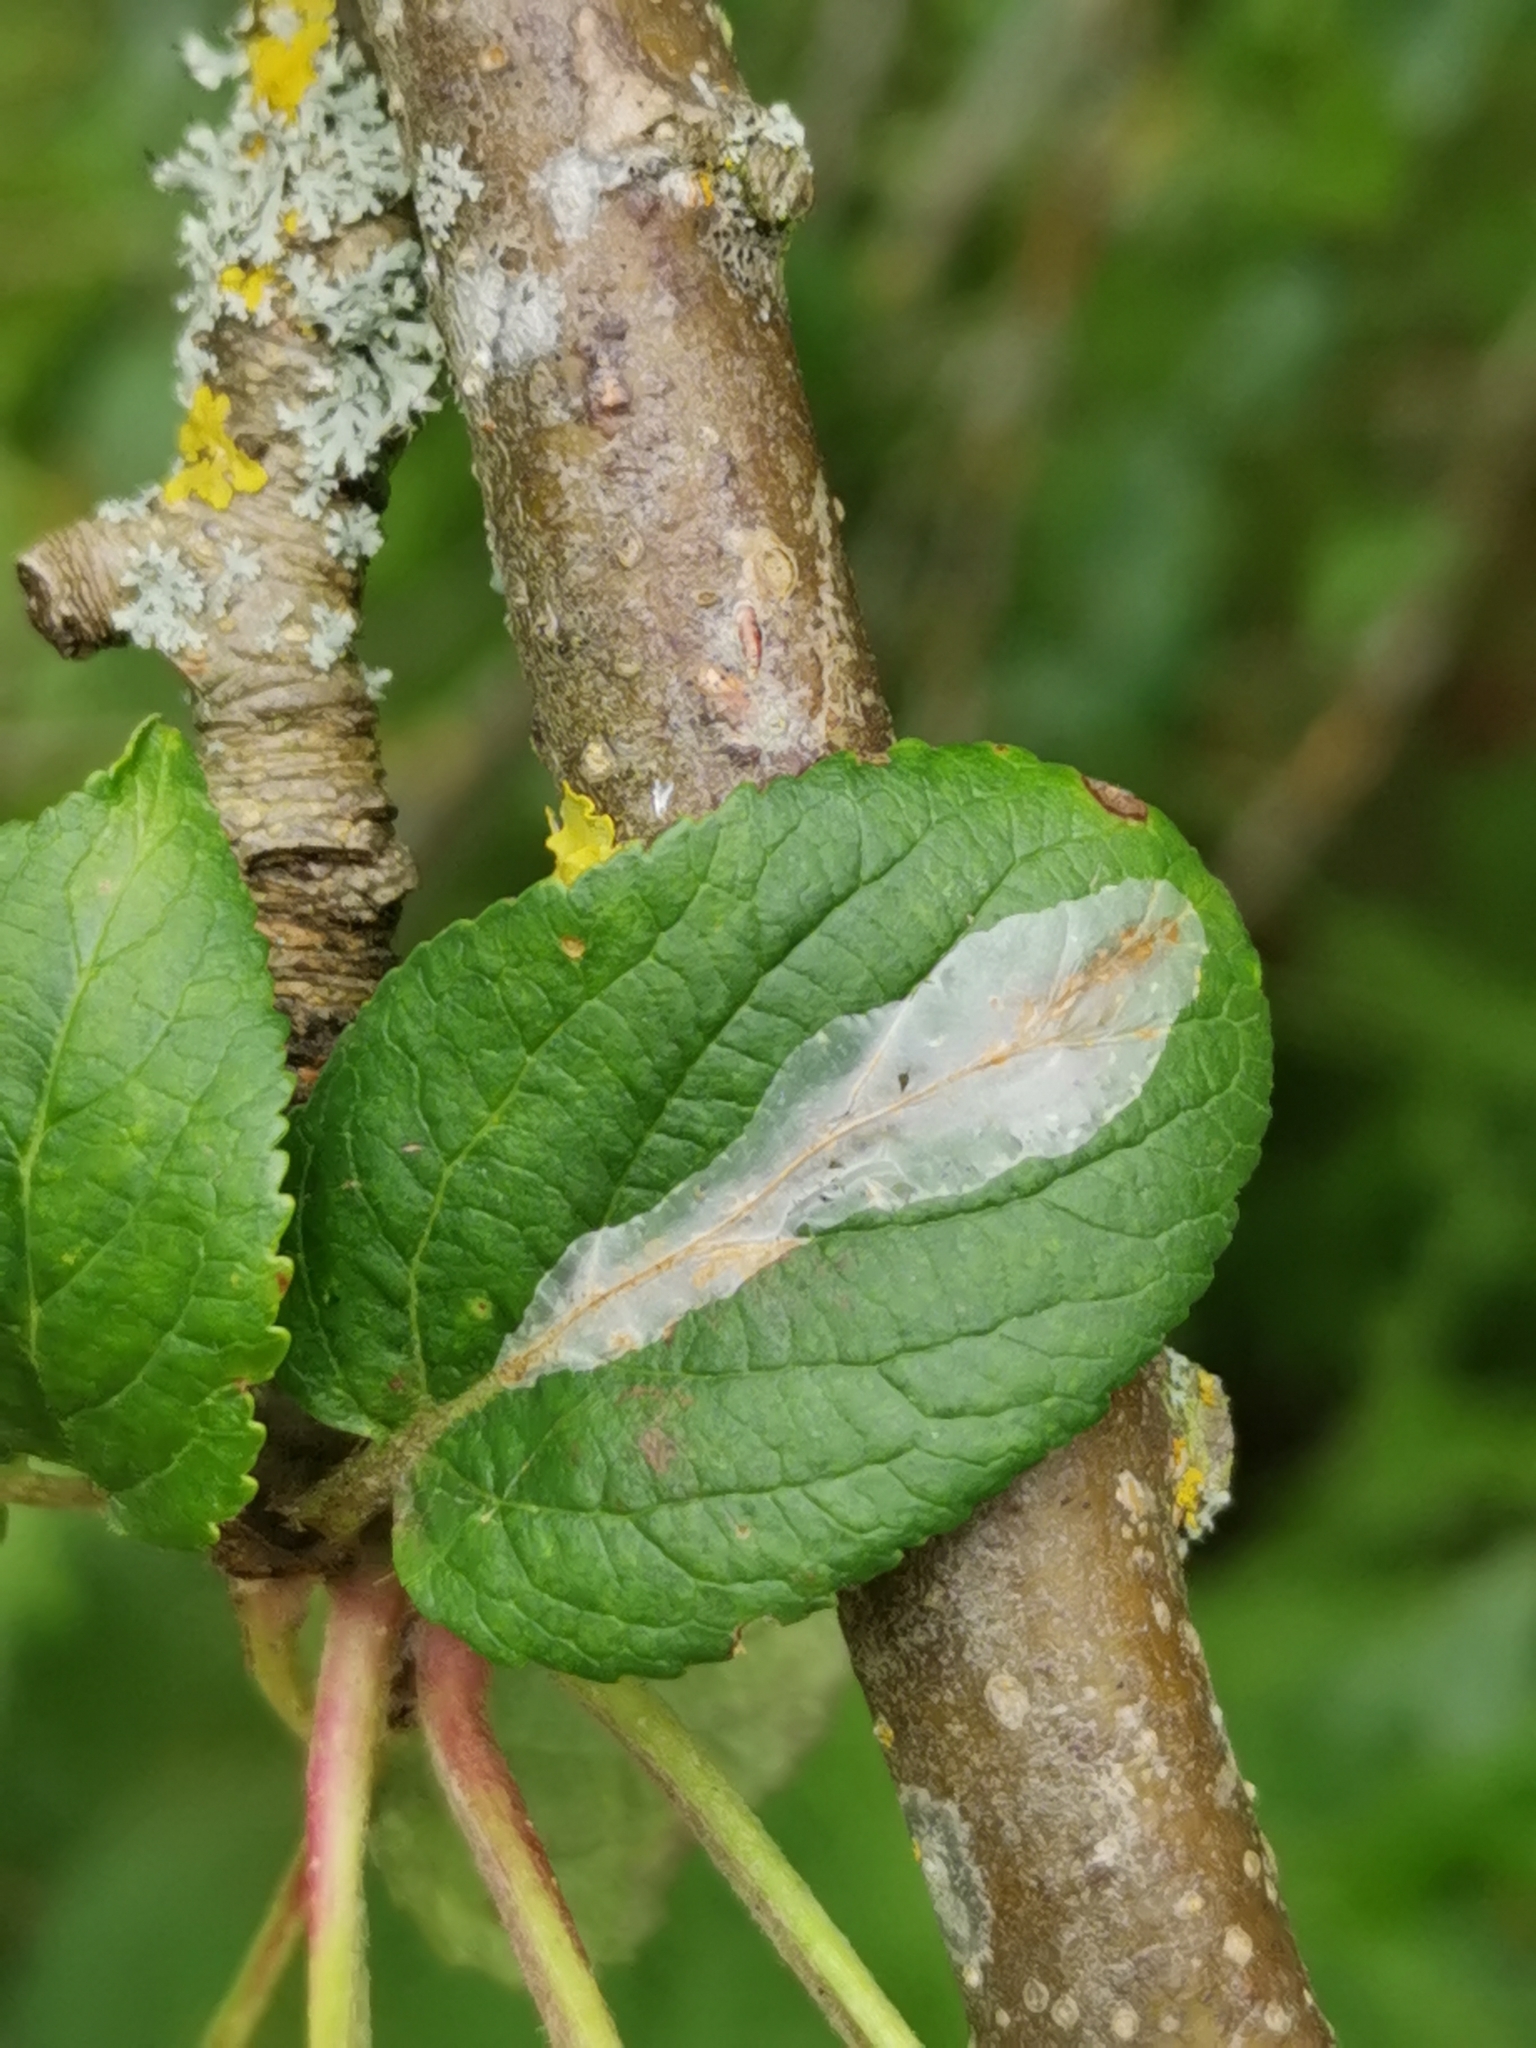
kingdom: Animalia
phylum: Arthropoda
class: Insecta
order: Lepidoptera
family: Gracillariidae
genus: Phyllonorycter
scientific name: Phyllonorycter leucographella
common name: Firethorn leaf-miner
